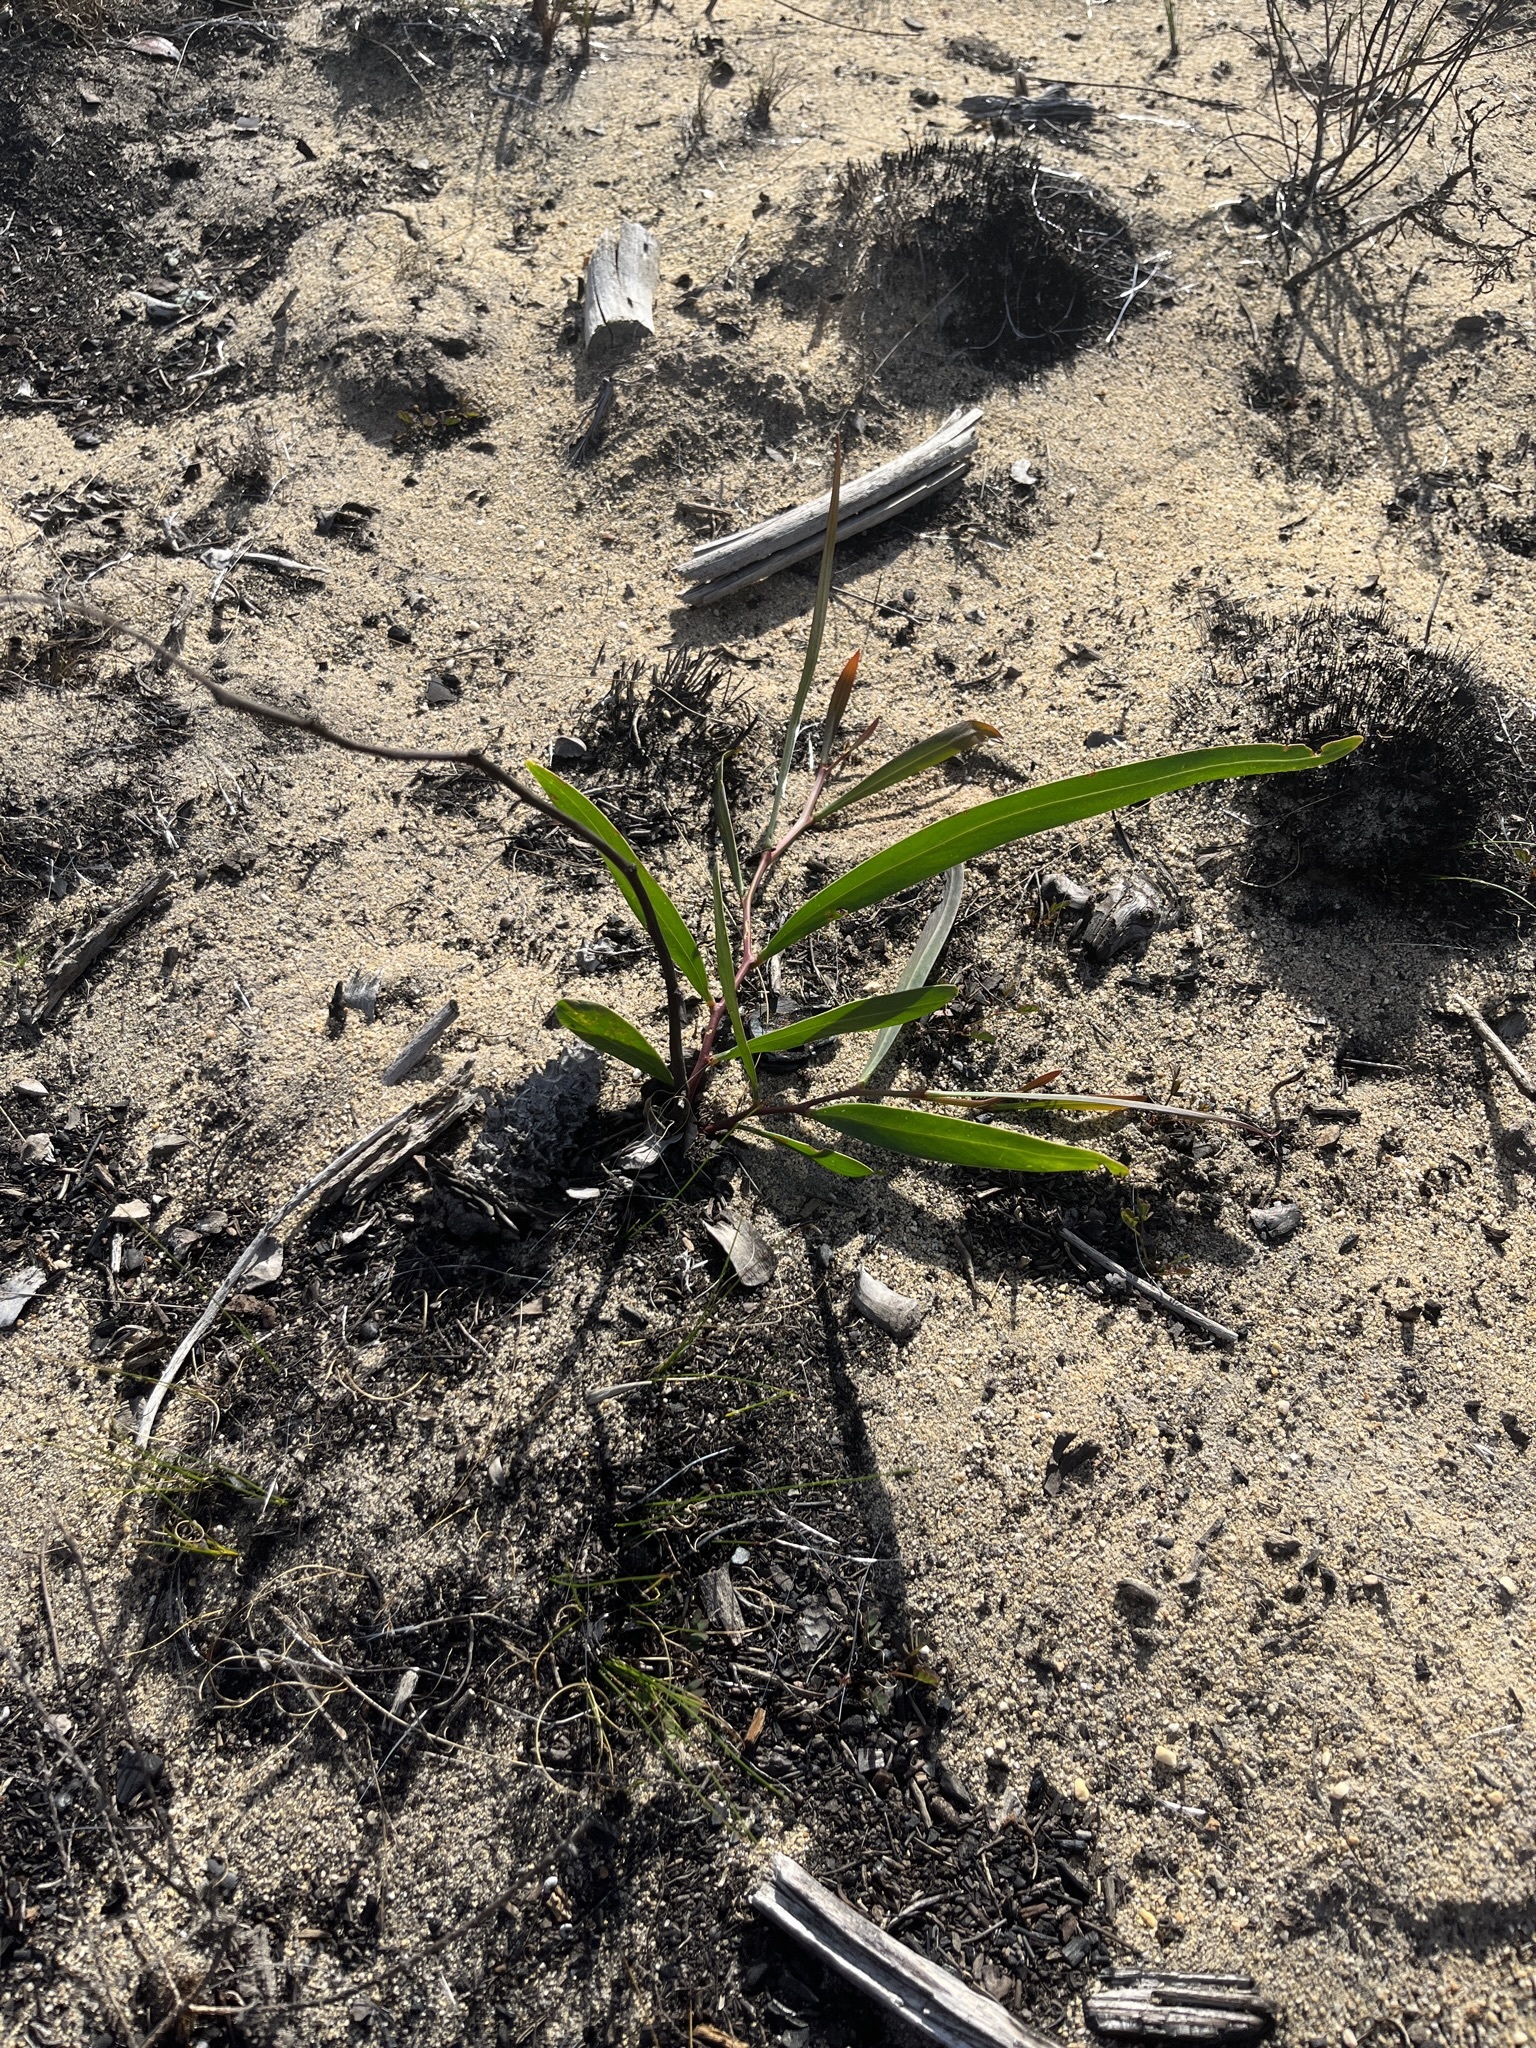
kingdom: Plantae
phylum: Tracheophyta
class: Magnoliopsida
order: Fabales
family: Fabaceae
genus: Acacia
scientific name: Acacia saligna
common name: Orange wattle
